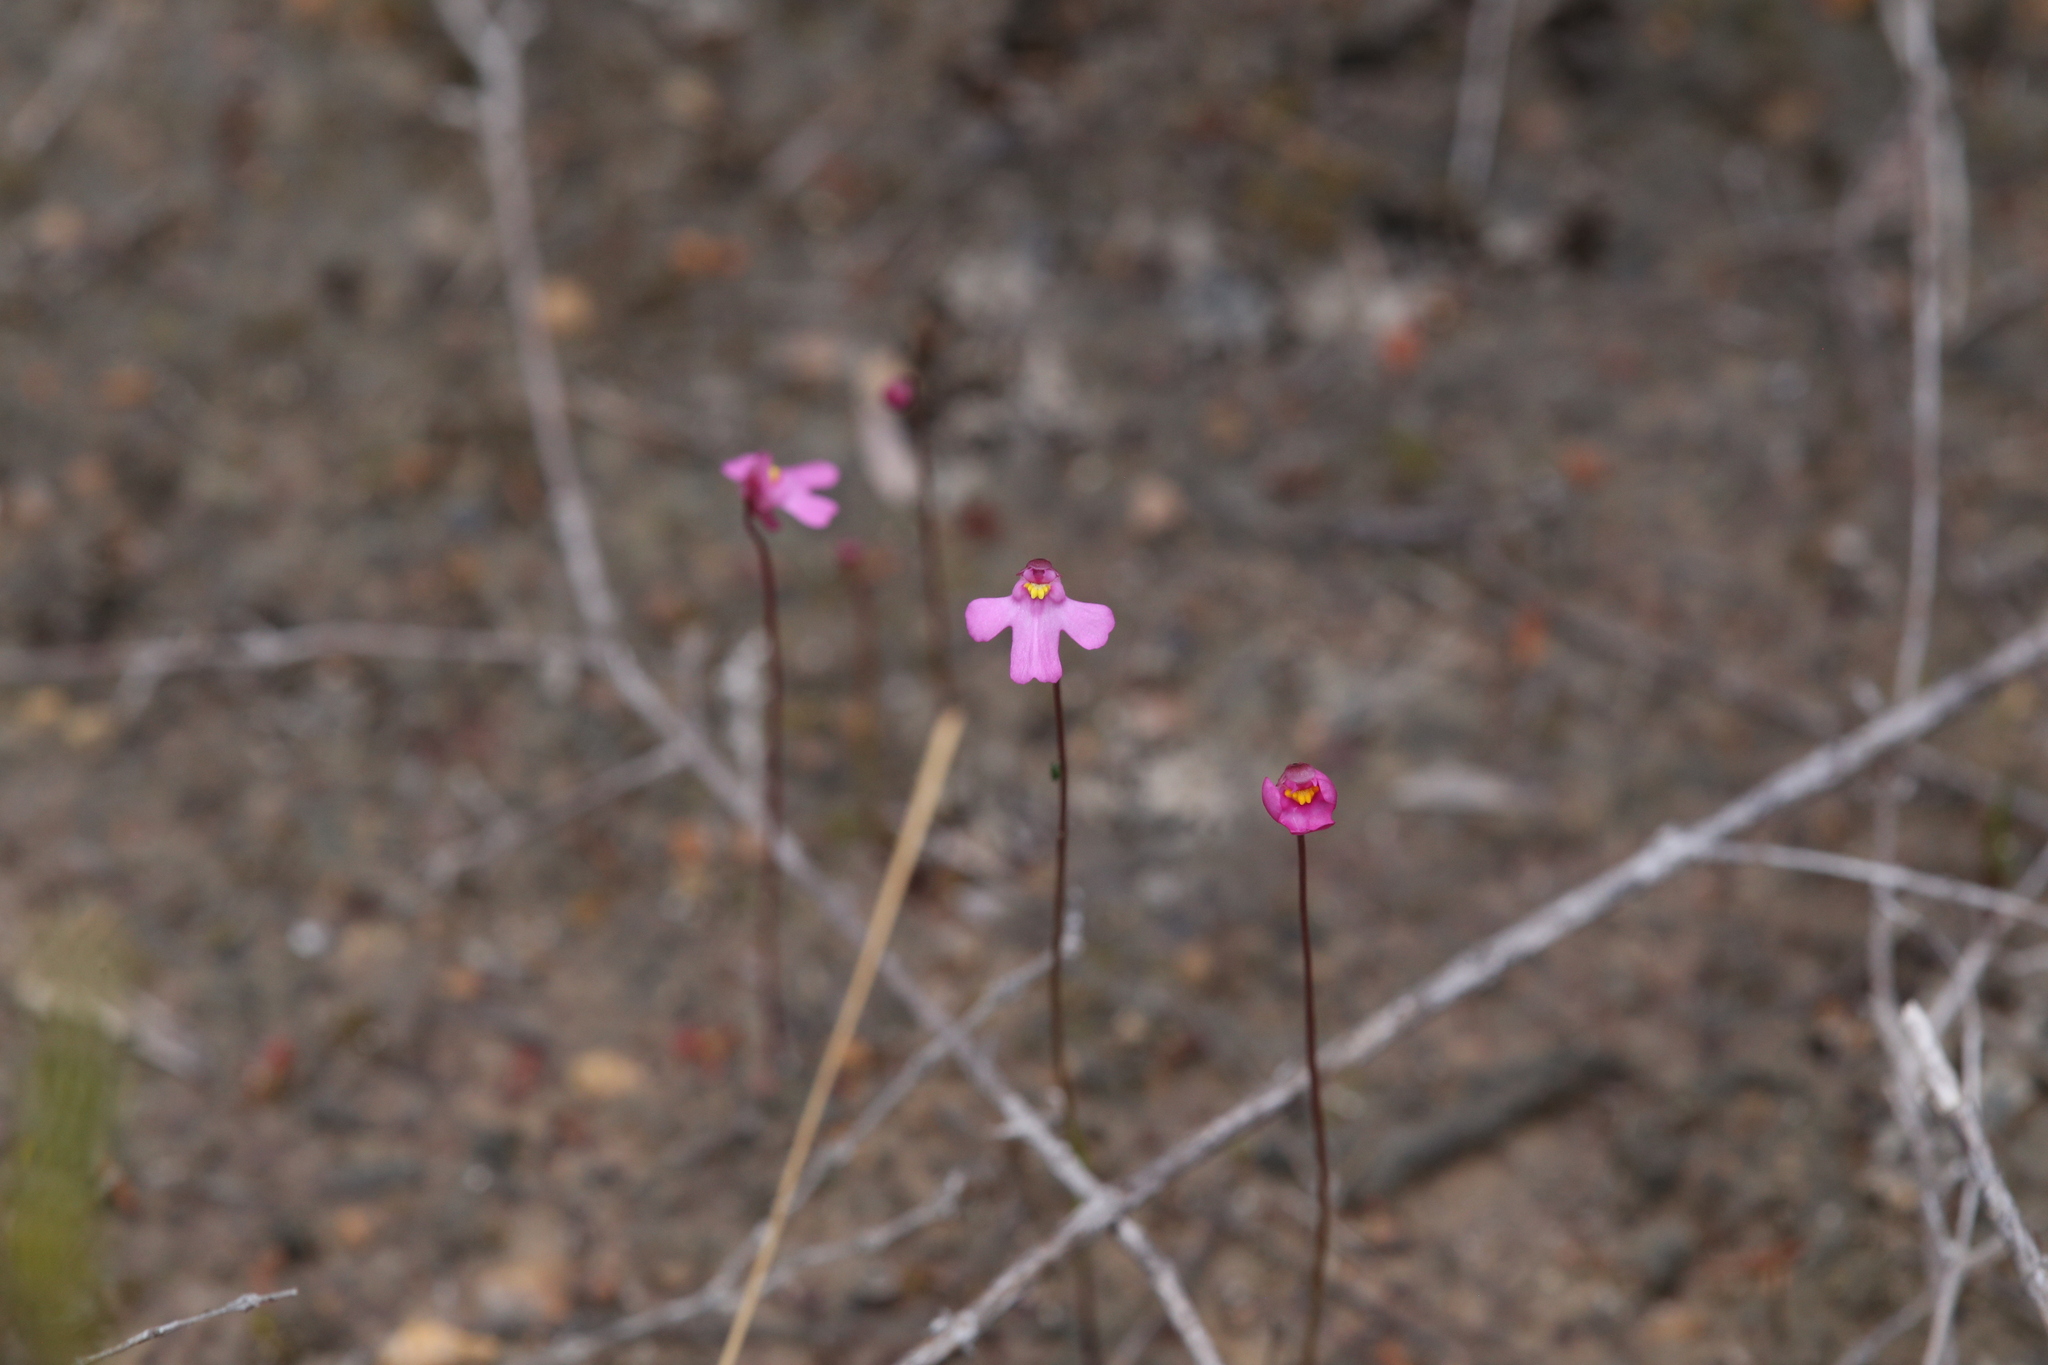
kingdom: Plantae
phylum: Tracheophyta
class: Magnoliopsida
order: Lamiales
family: Lentibulariaceae
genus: Utricularia
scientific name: Utricularia multifida
